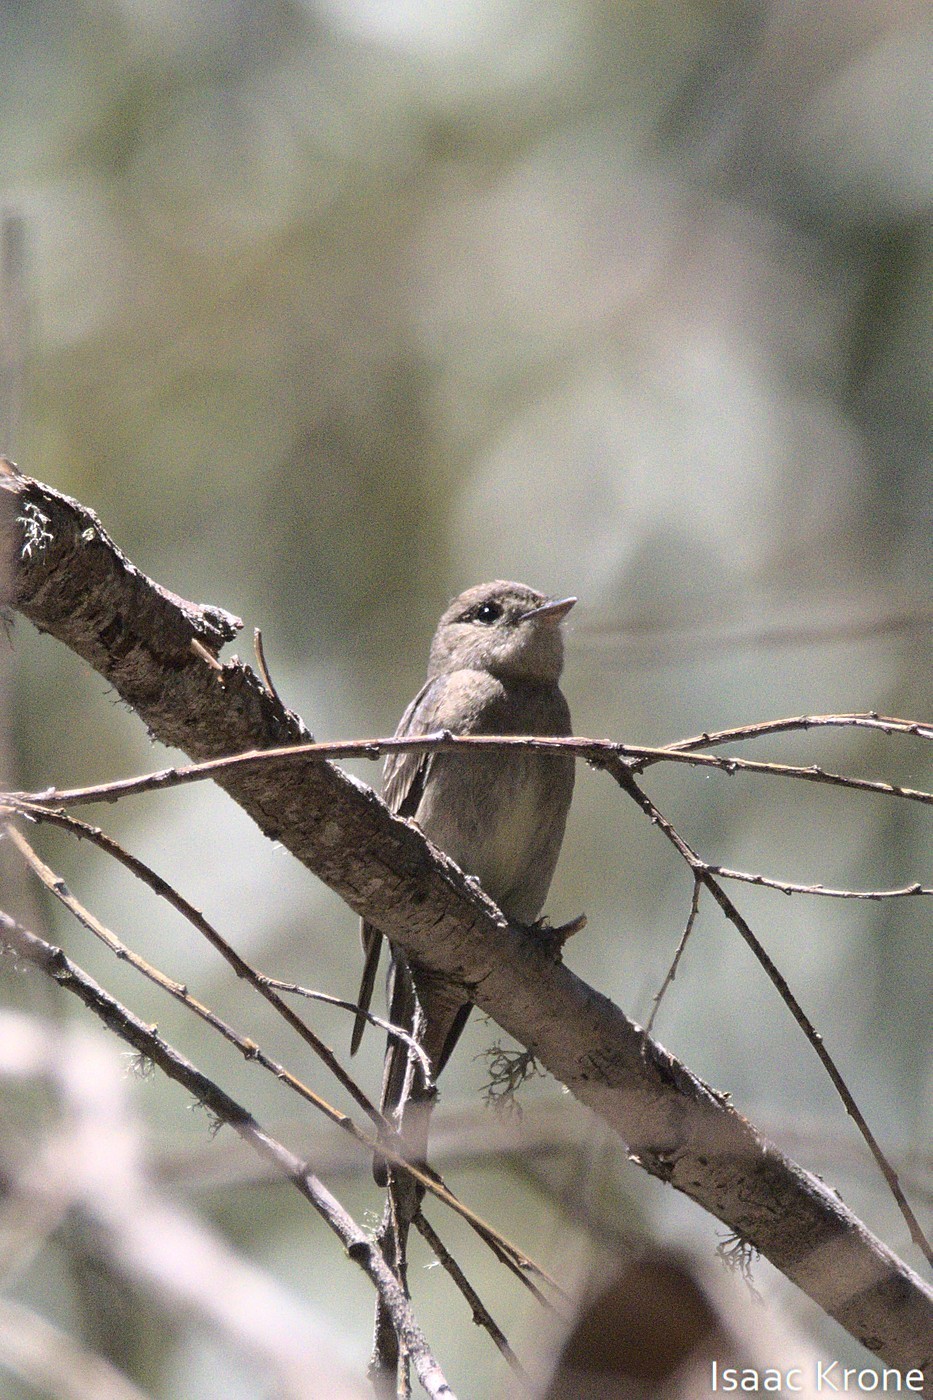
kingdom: Animalia
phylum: Chordata
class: Aves
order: Passeriformes
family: Tyrannidae
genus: Contopus
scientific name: Contopus sordidulus
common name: Western wood-pewee
